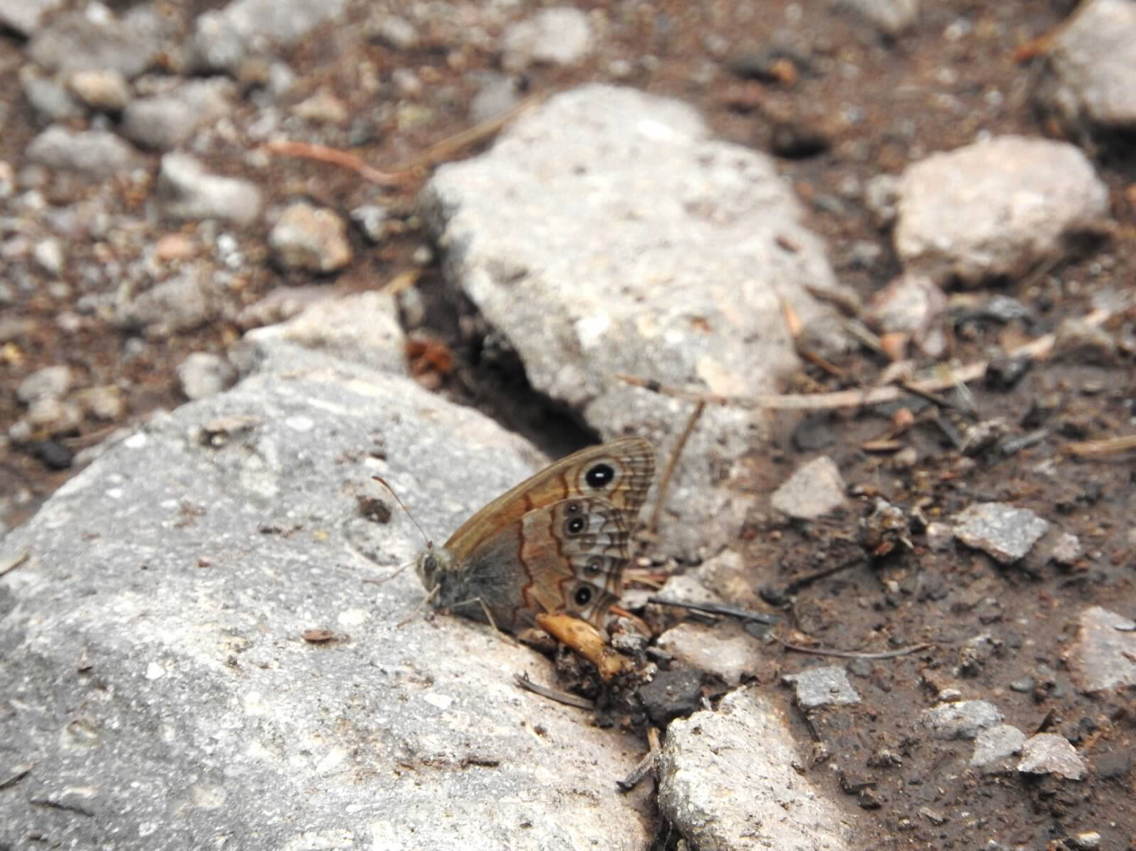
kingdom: Animalia
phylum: Arthropoda
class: Insecta
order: Lepidoptera
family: Nymphalidae
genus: Paramecera
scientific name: Paramecera xicaque
